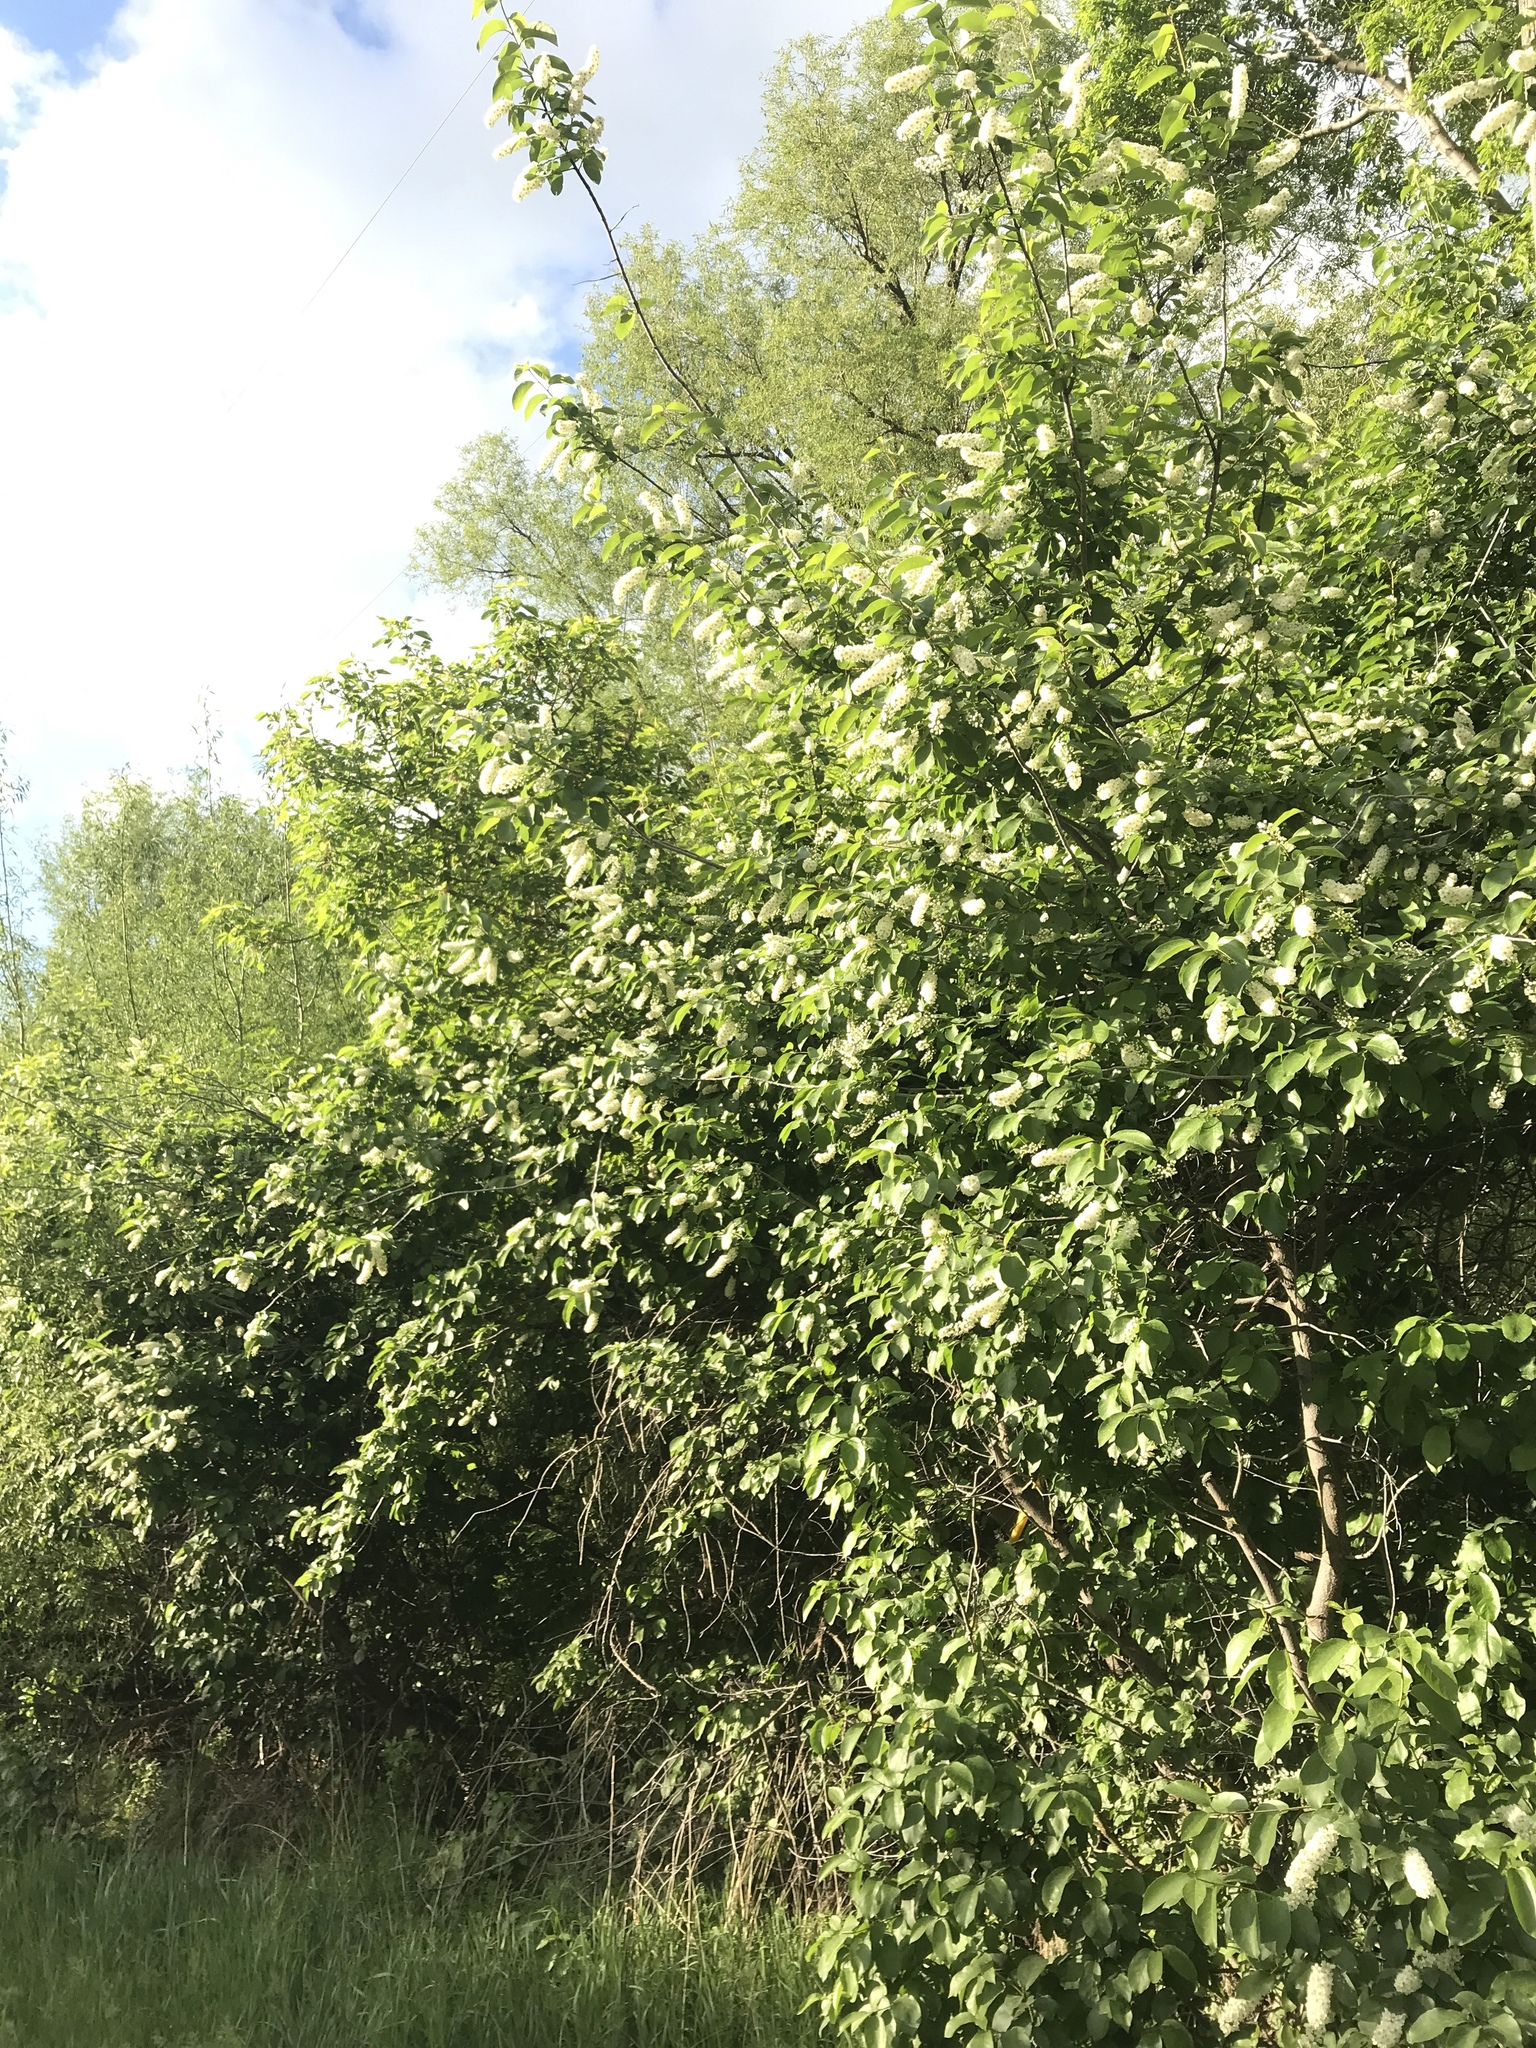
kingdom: Plantae
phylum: Tracheophyta
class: Magnoliopsida
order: Rosales
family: Rosaceae
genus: Prunus
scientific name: Prunus virginiana
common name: Chokecherry
